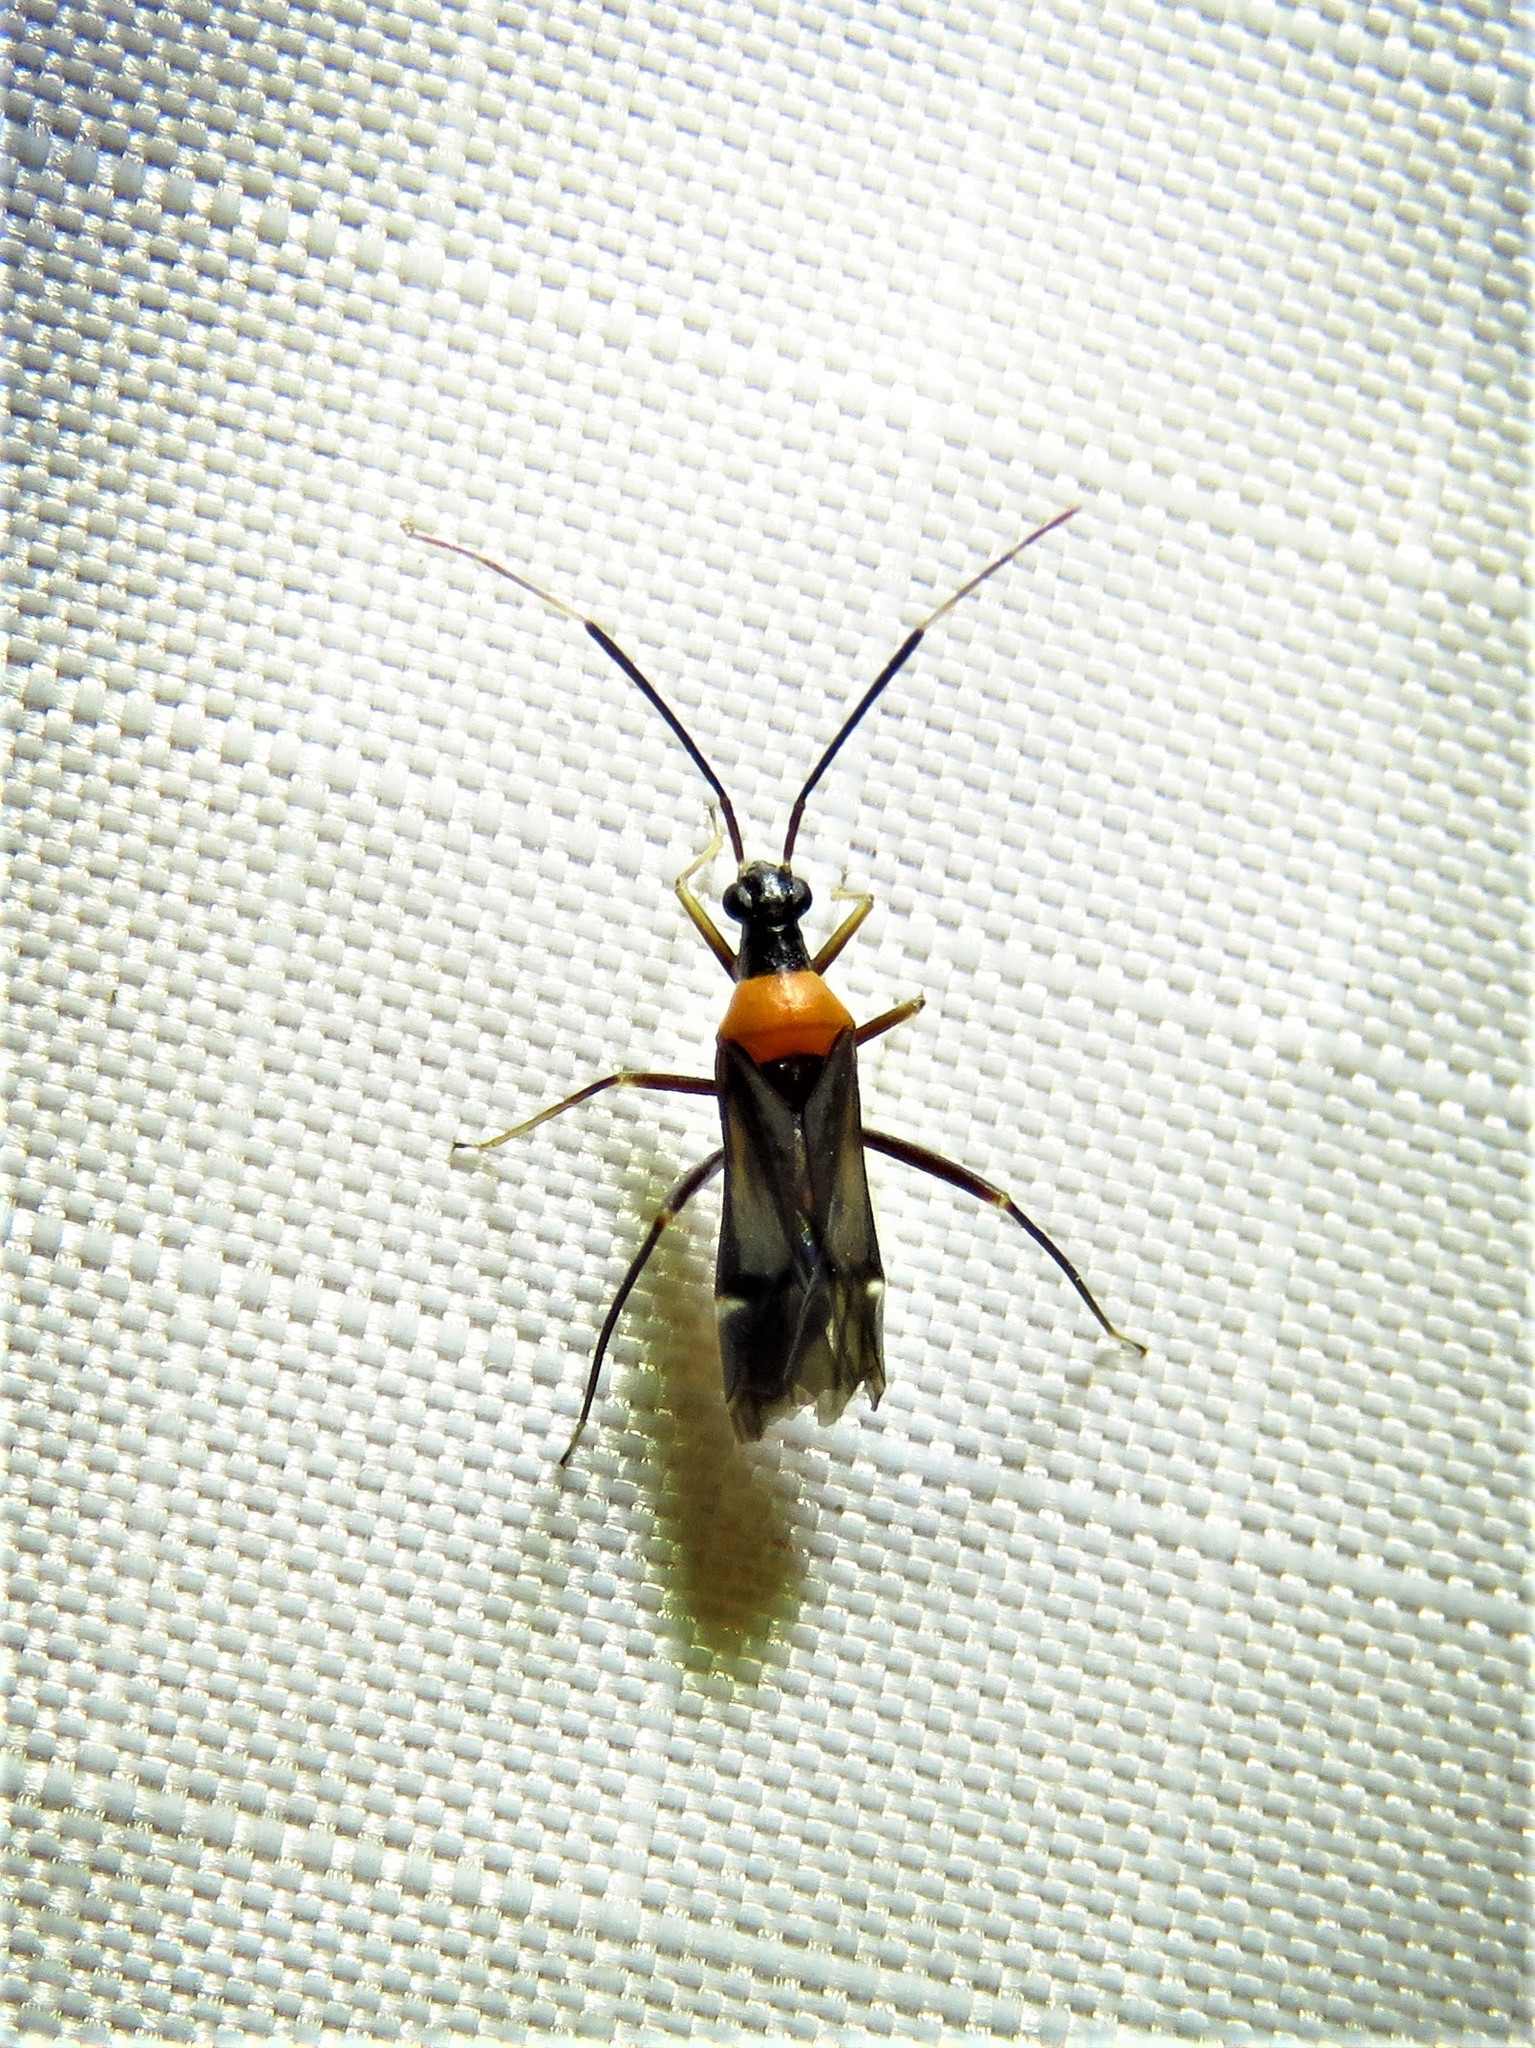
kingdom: Animalia
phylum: Arthropoda
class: Insecta
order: Hemiptera
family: Miridae
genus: Pseudoxenetus
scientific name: Pseudoxenetus regalis
